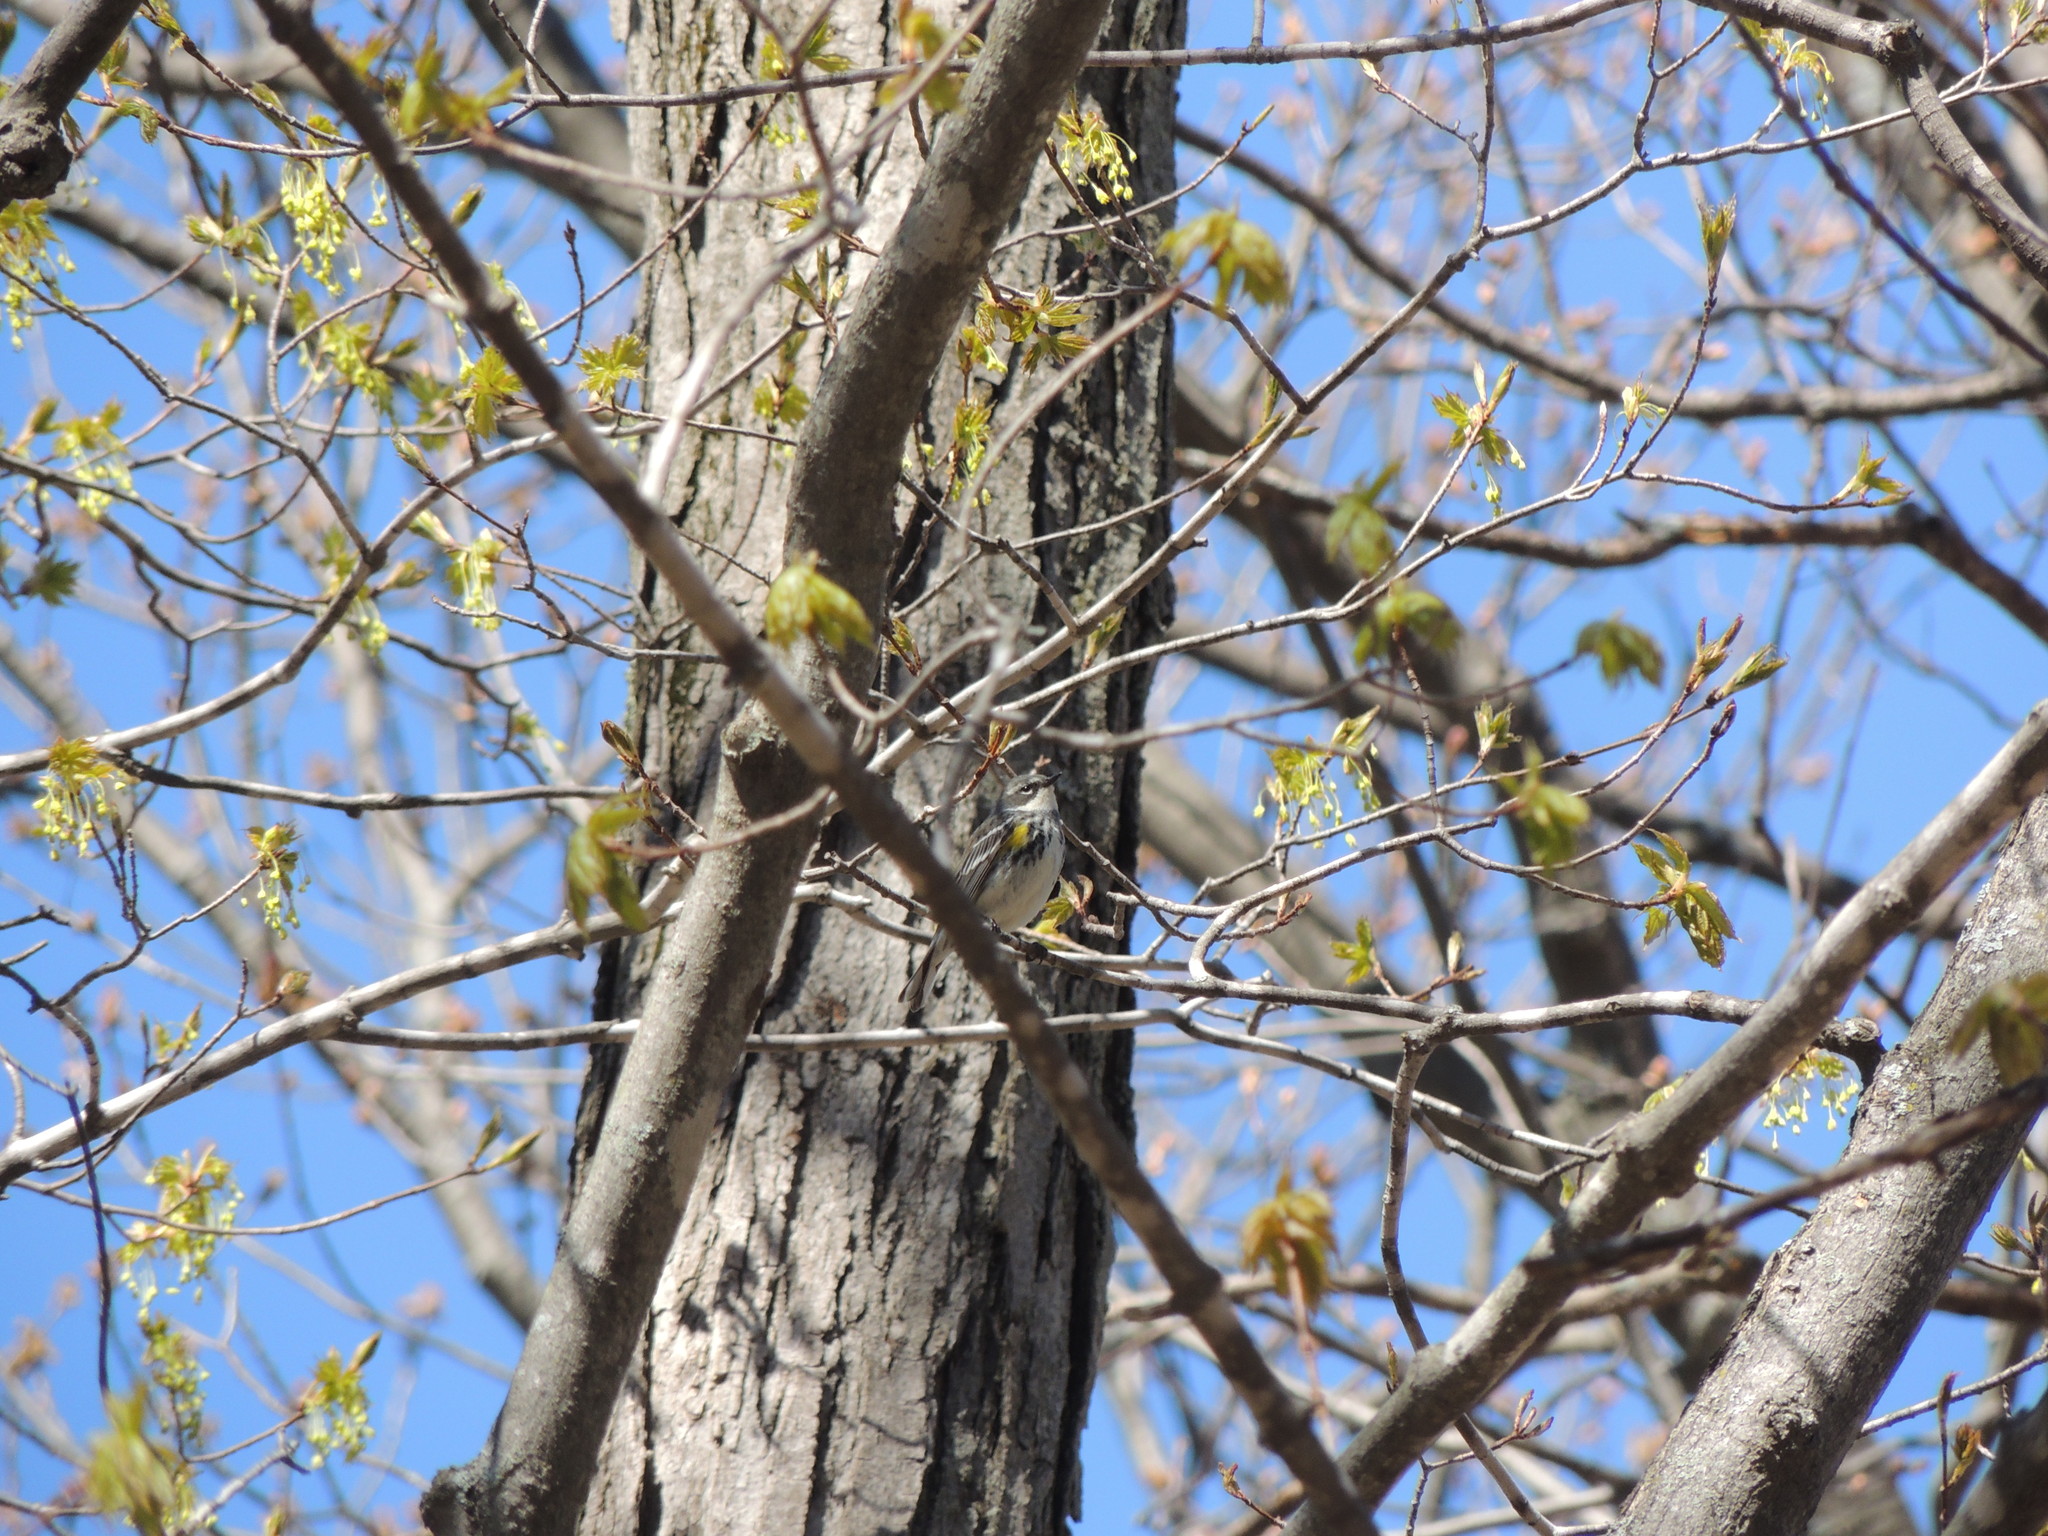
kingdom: Animalia
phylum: Chordata
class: Aves
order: Passeriformes
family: Parulidae
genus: Setophaga
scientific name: Setophaga coronata
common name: Myrtle warbler
